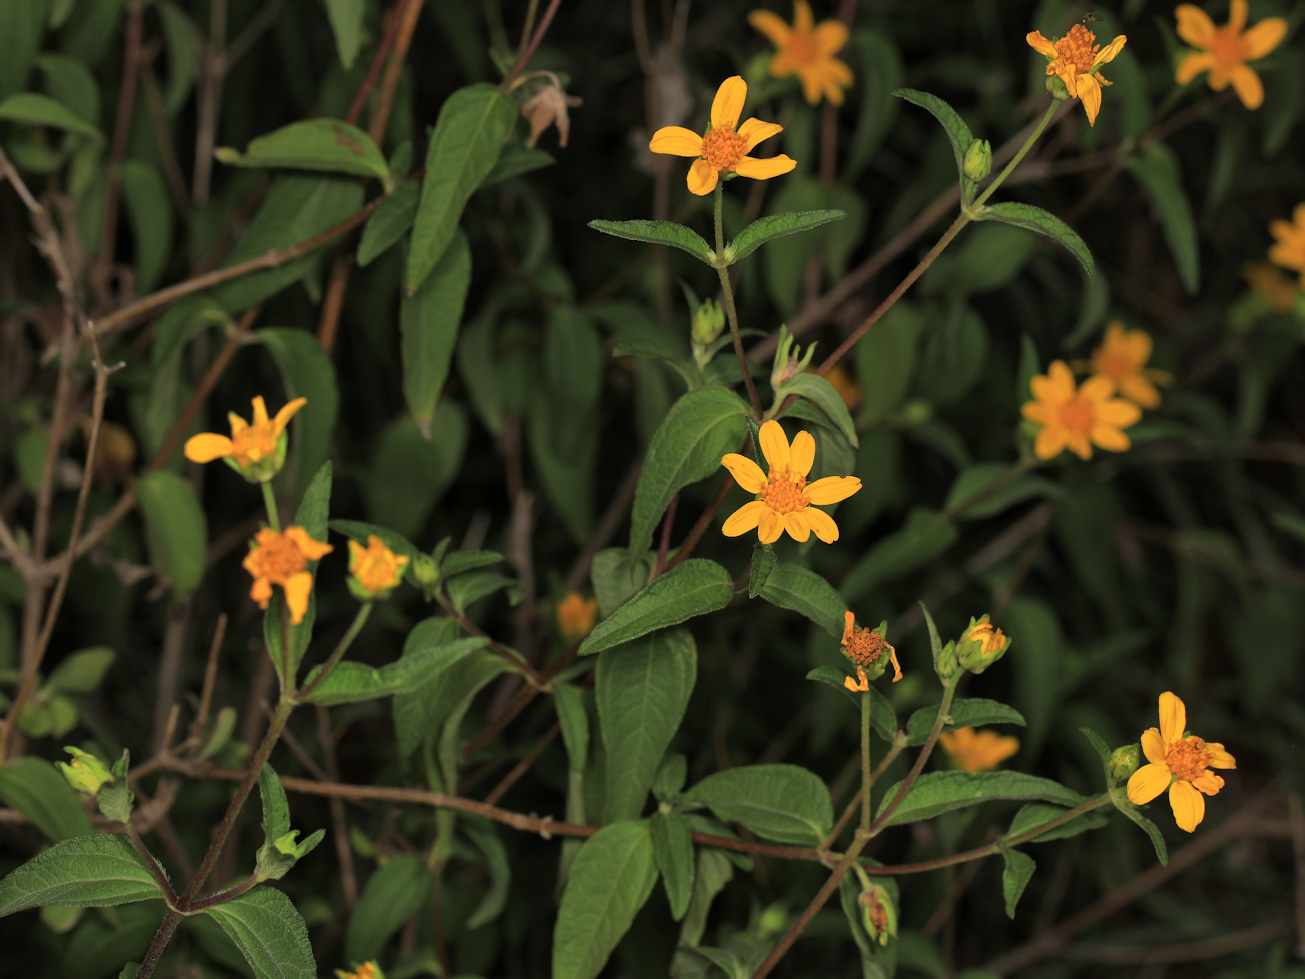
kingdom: Plantae
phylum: Tracheophyta
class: Magnoliopsida
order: Asterales
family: Asteraceae
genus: Aspilia
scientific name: Aspilia mossambicensis
